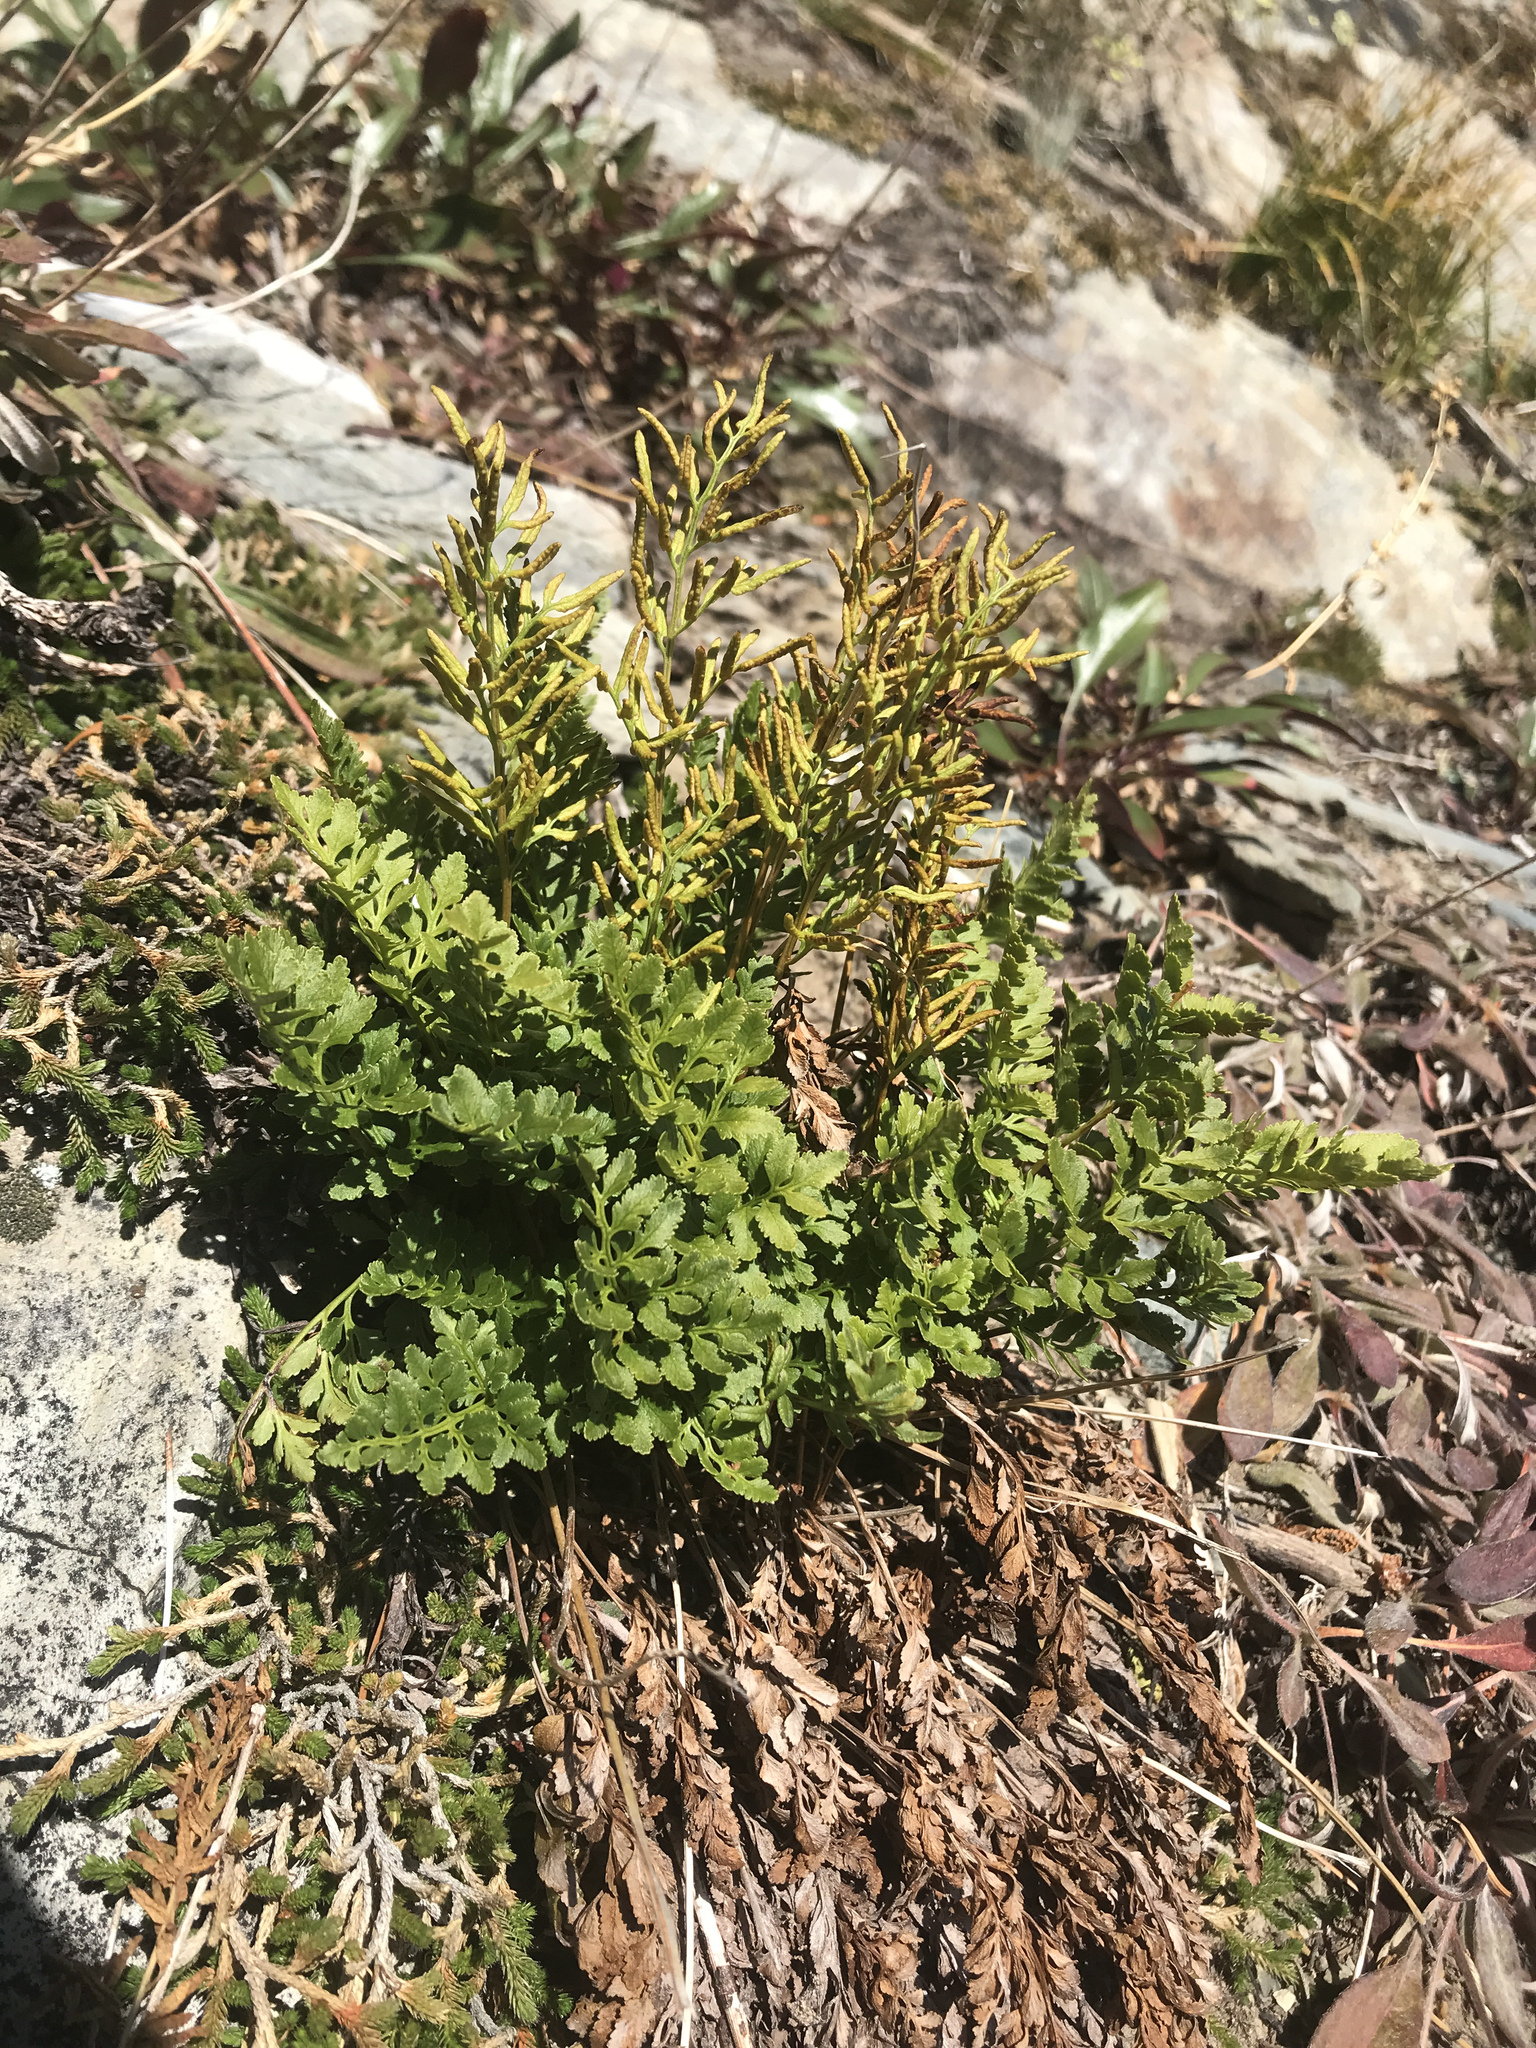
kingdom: Plantae
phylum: Tracheophyta
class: Polypodiopsida
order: Polypodiales
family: Pteridaceae
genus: Cryptogramma
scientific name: Cryptogramma acrostichoides
